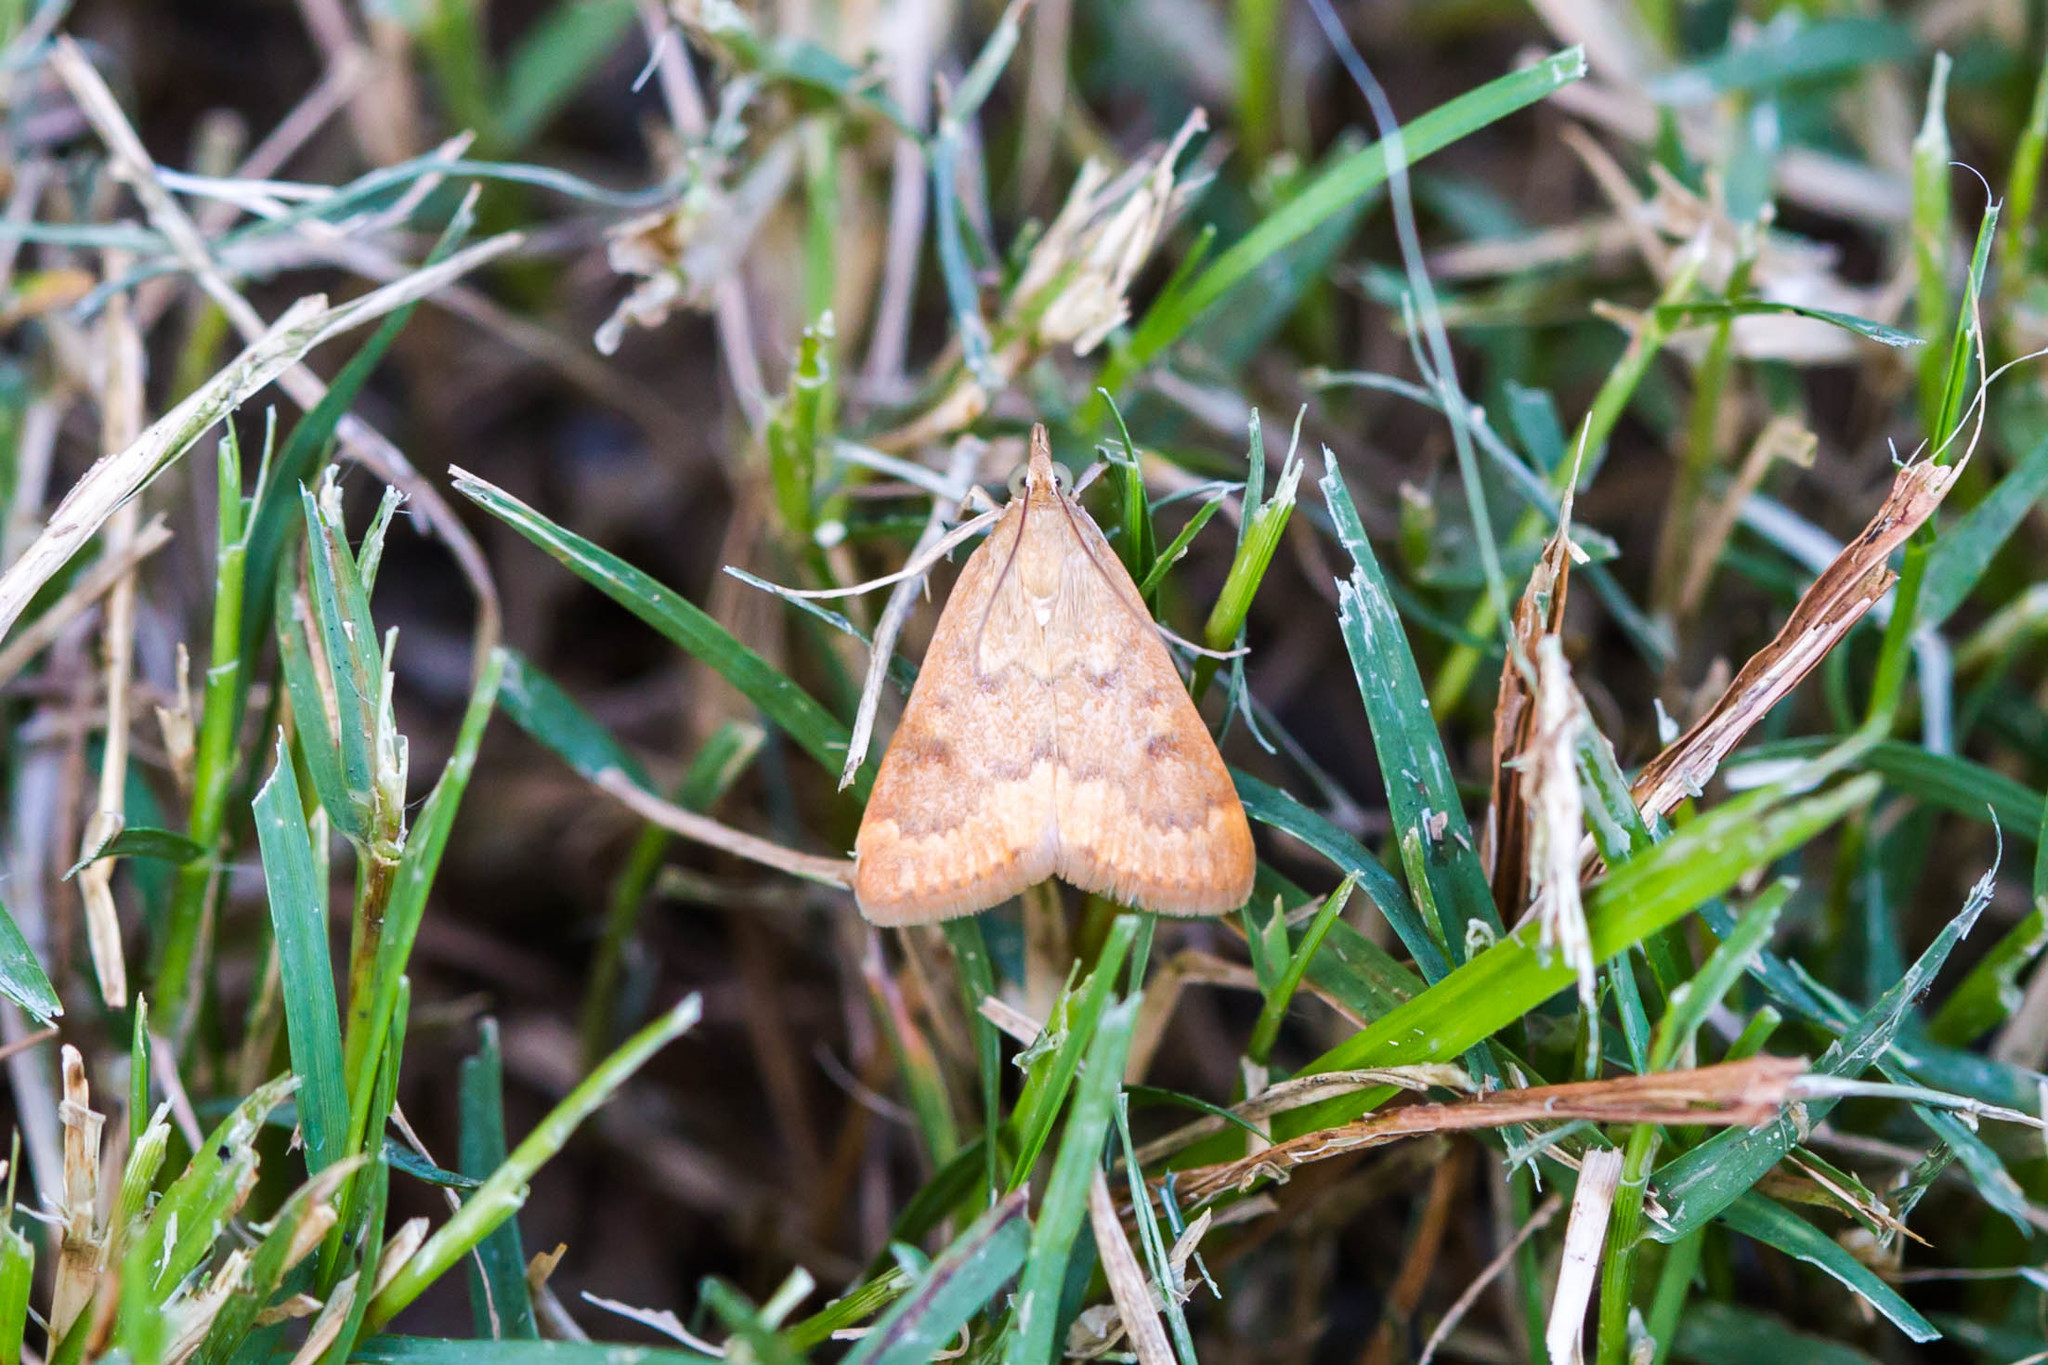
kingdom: Animalia
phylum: Arthropoda
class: Insecta
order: Lepidoptera
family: Crambidae
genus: Achyra
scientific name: Achyra rantalis
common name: Garden webworm
